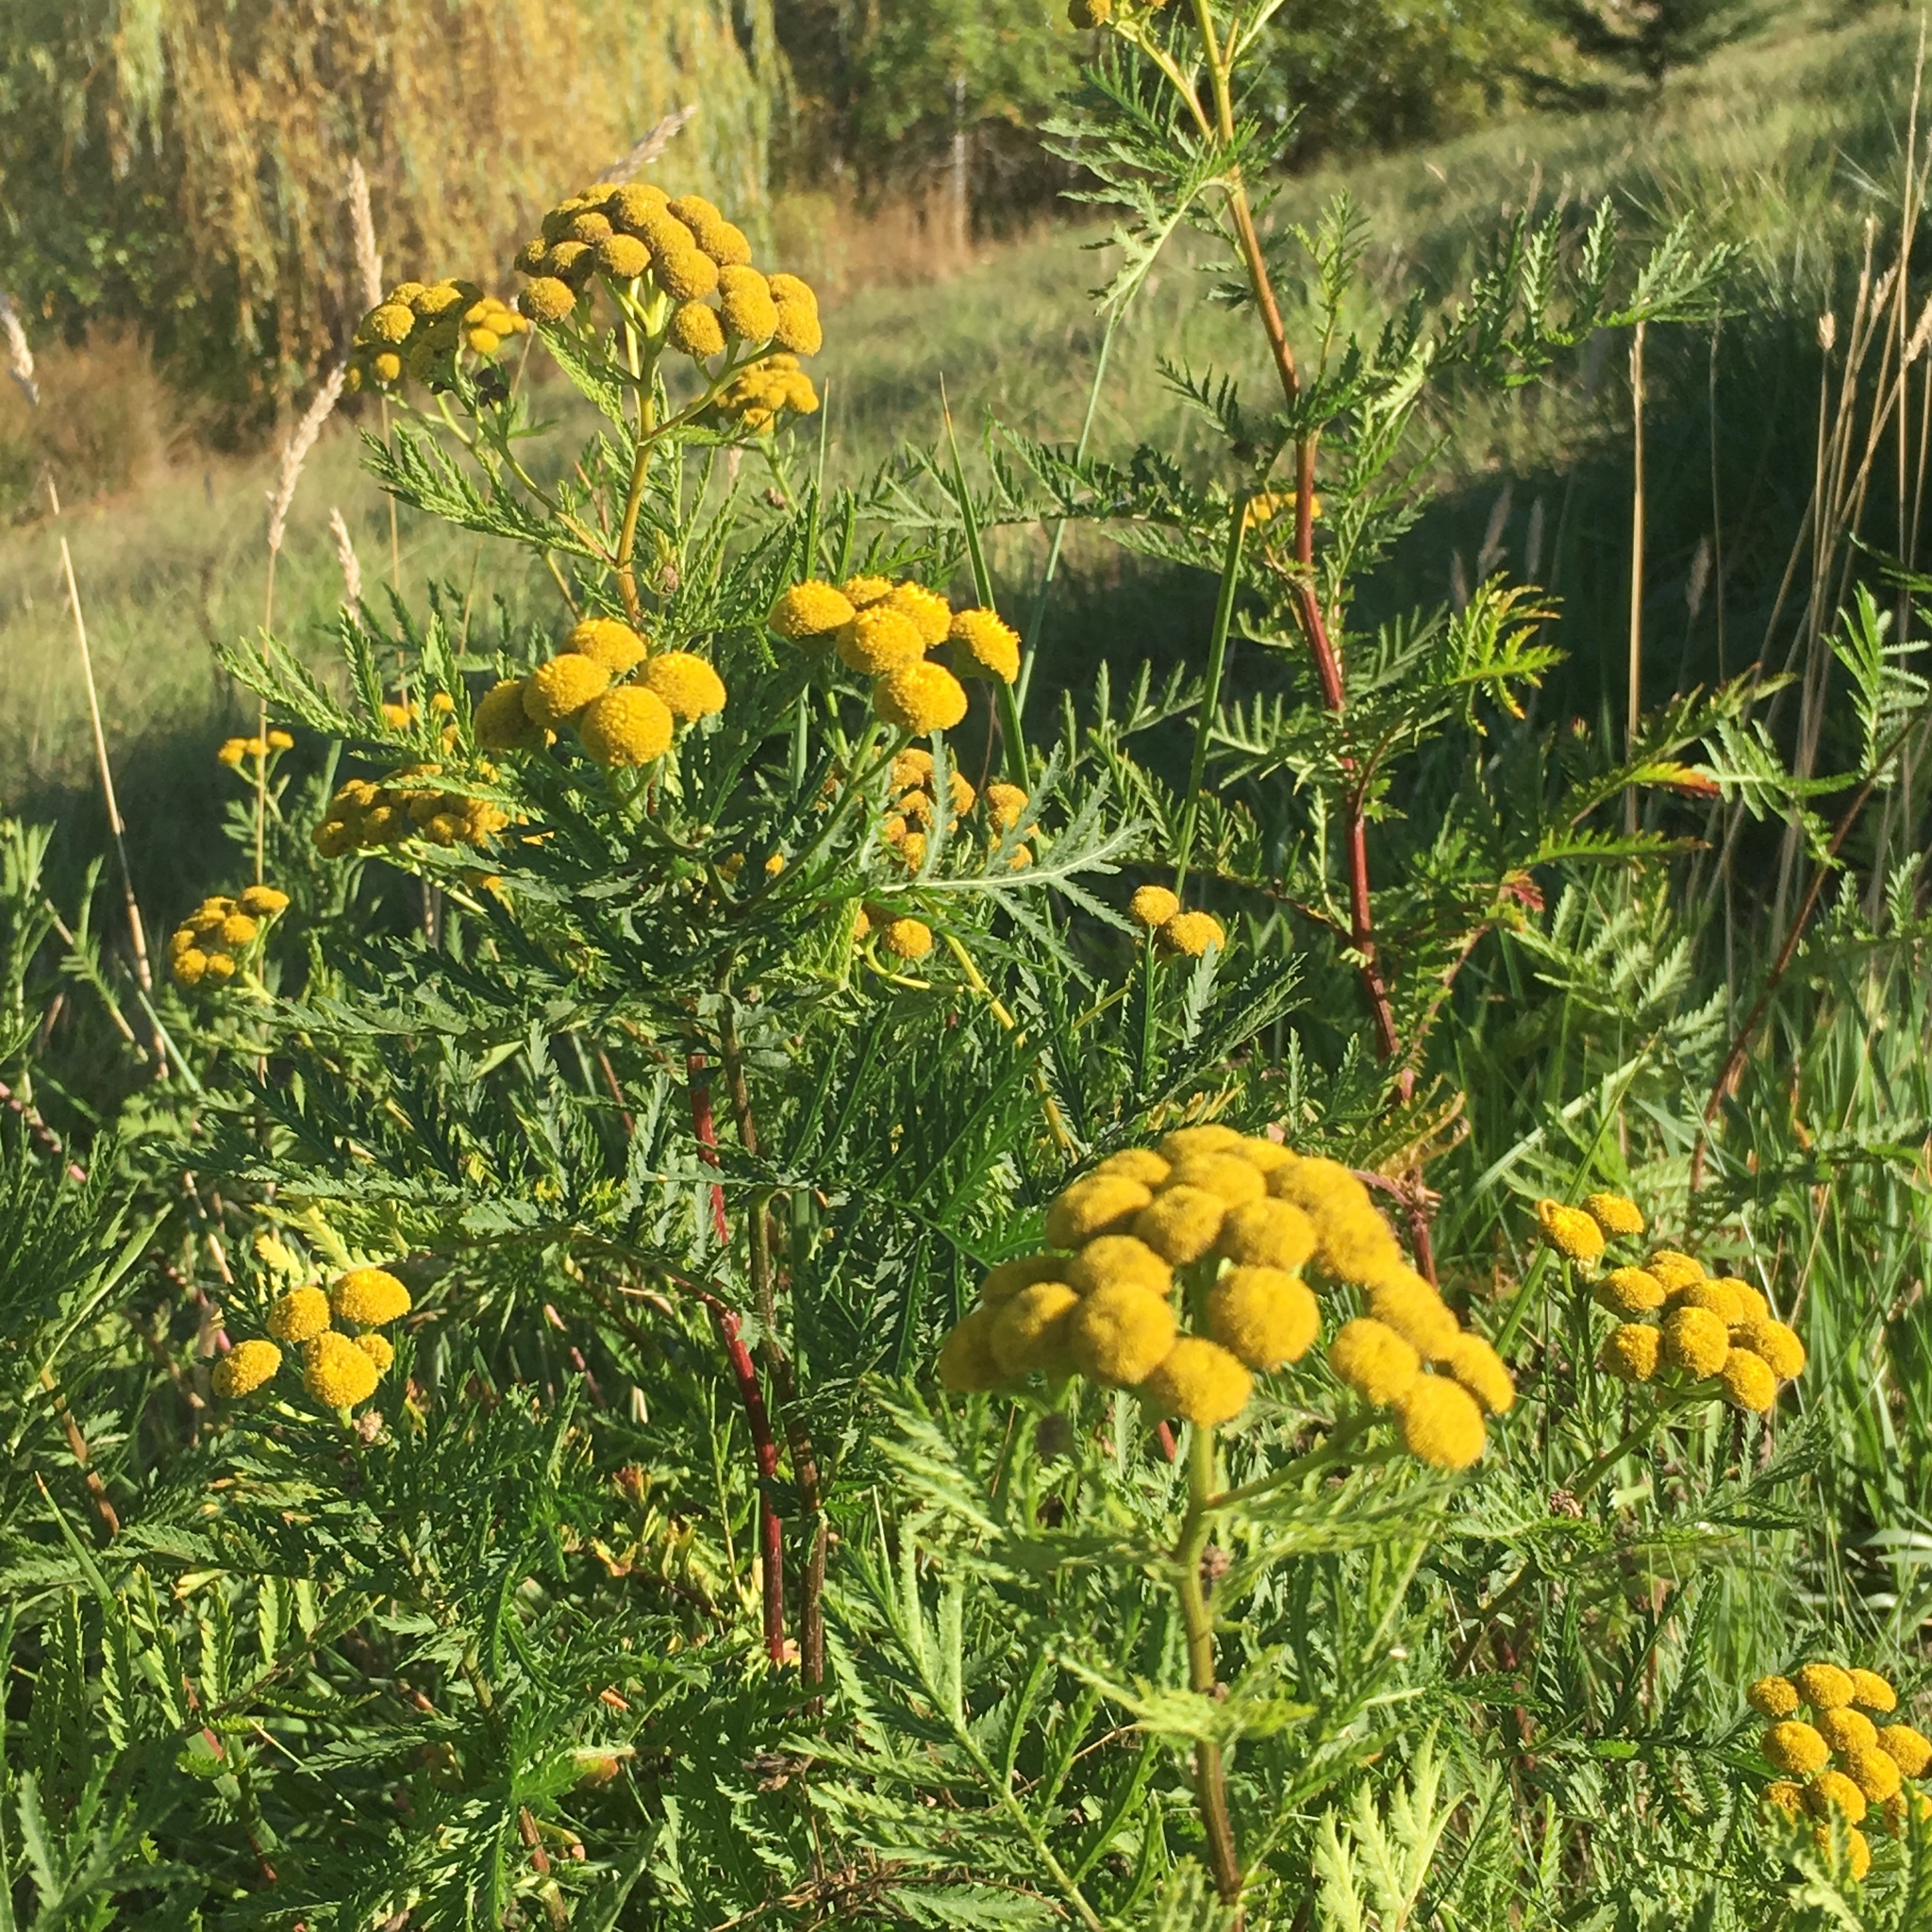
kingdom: Plantae
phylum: Tracheophyta
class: Magnoliopsida
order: Asterales
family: Asteraceae
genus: Tanacetum
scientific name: Tanacetum vulgare
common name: Common tansy
